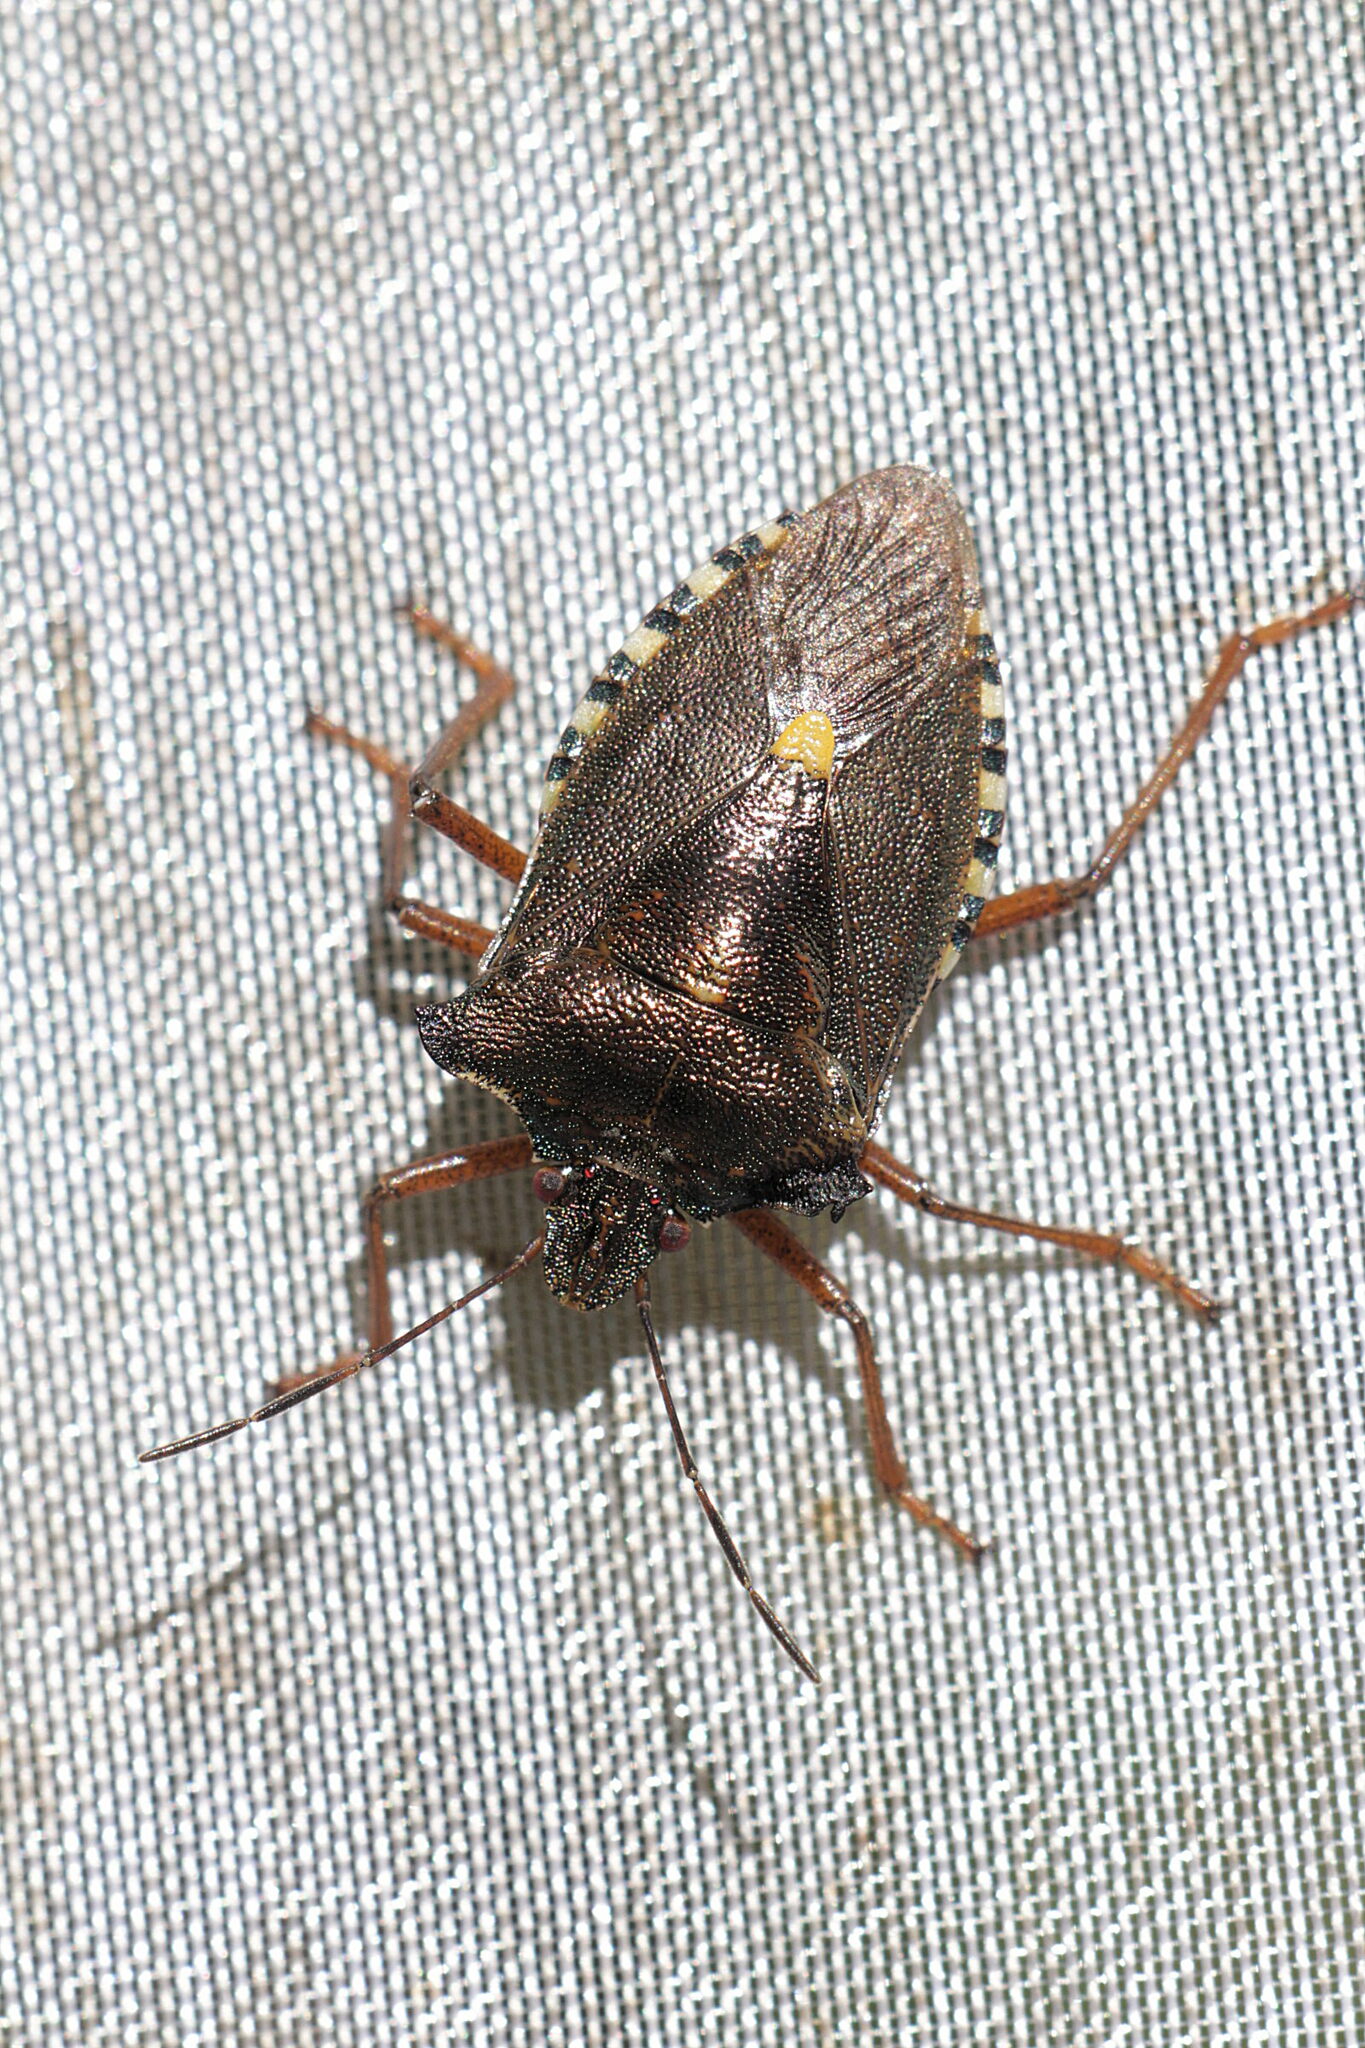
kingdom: Animalia
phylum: Arthropoda
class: Insecta
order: Hemiptera
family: Pentatomidae
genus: Pentatoma
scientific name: Pentatoma rufipes
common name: Forest bug
